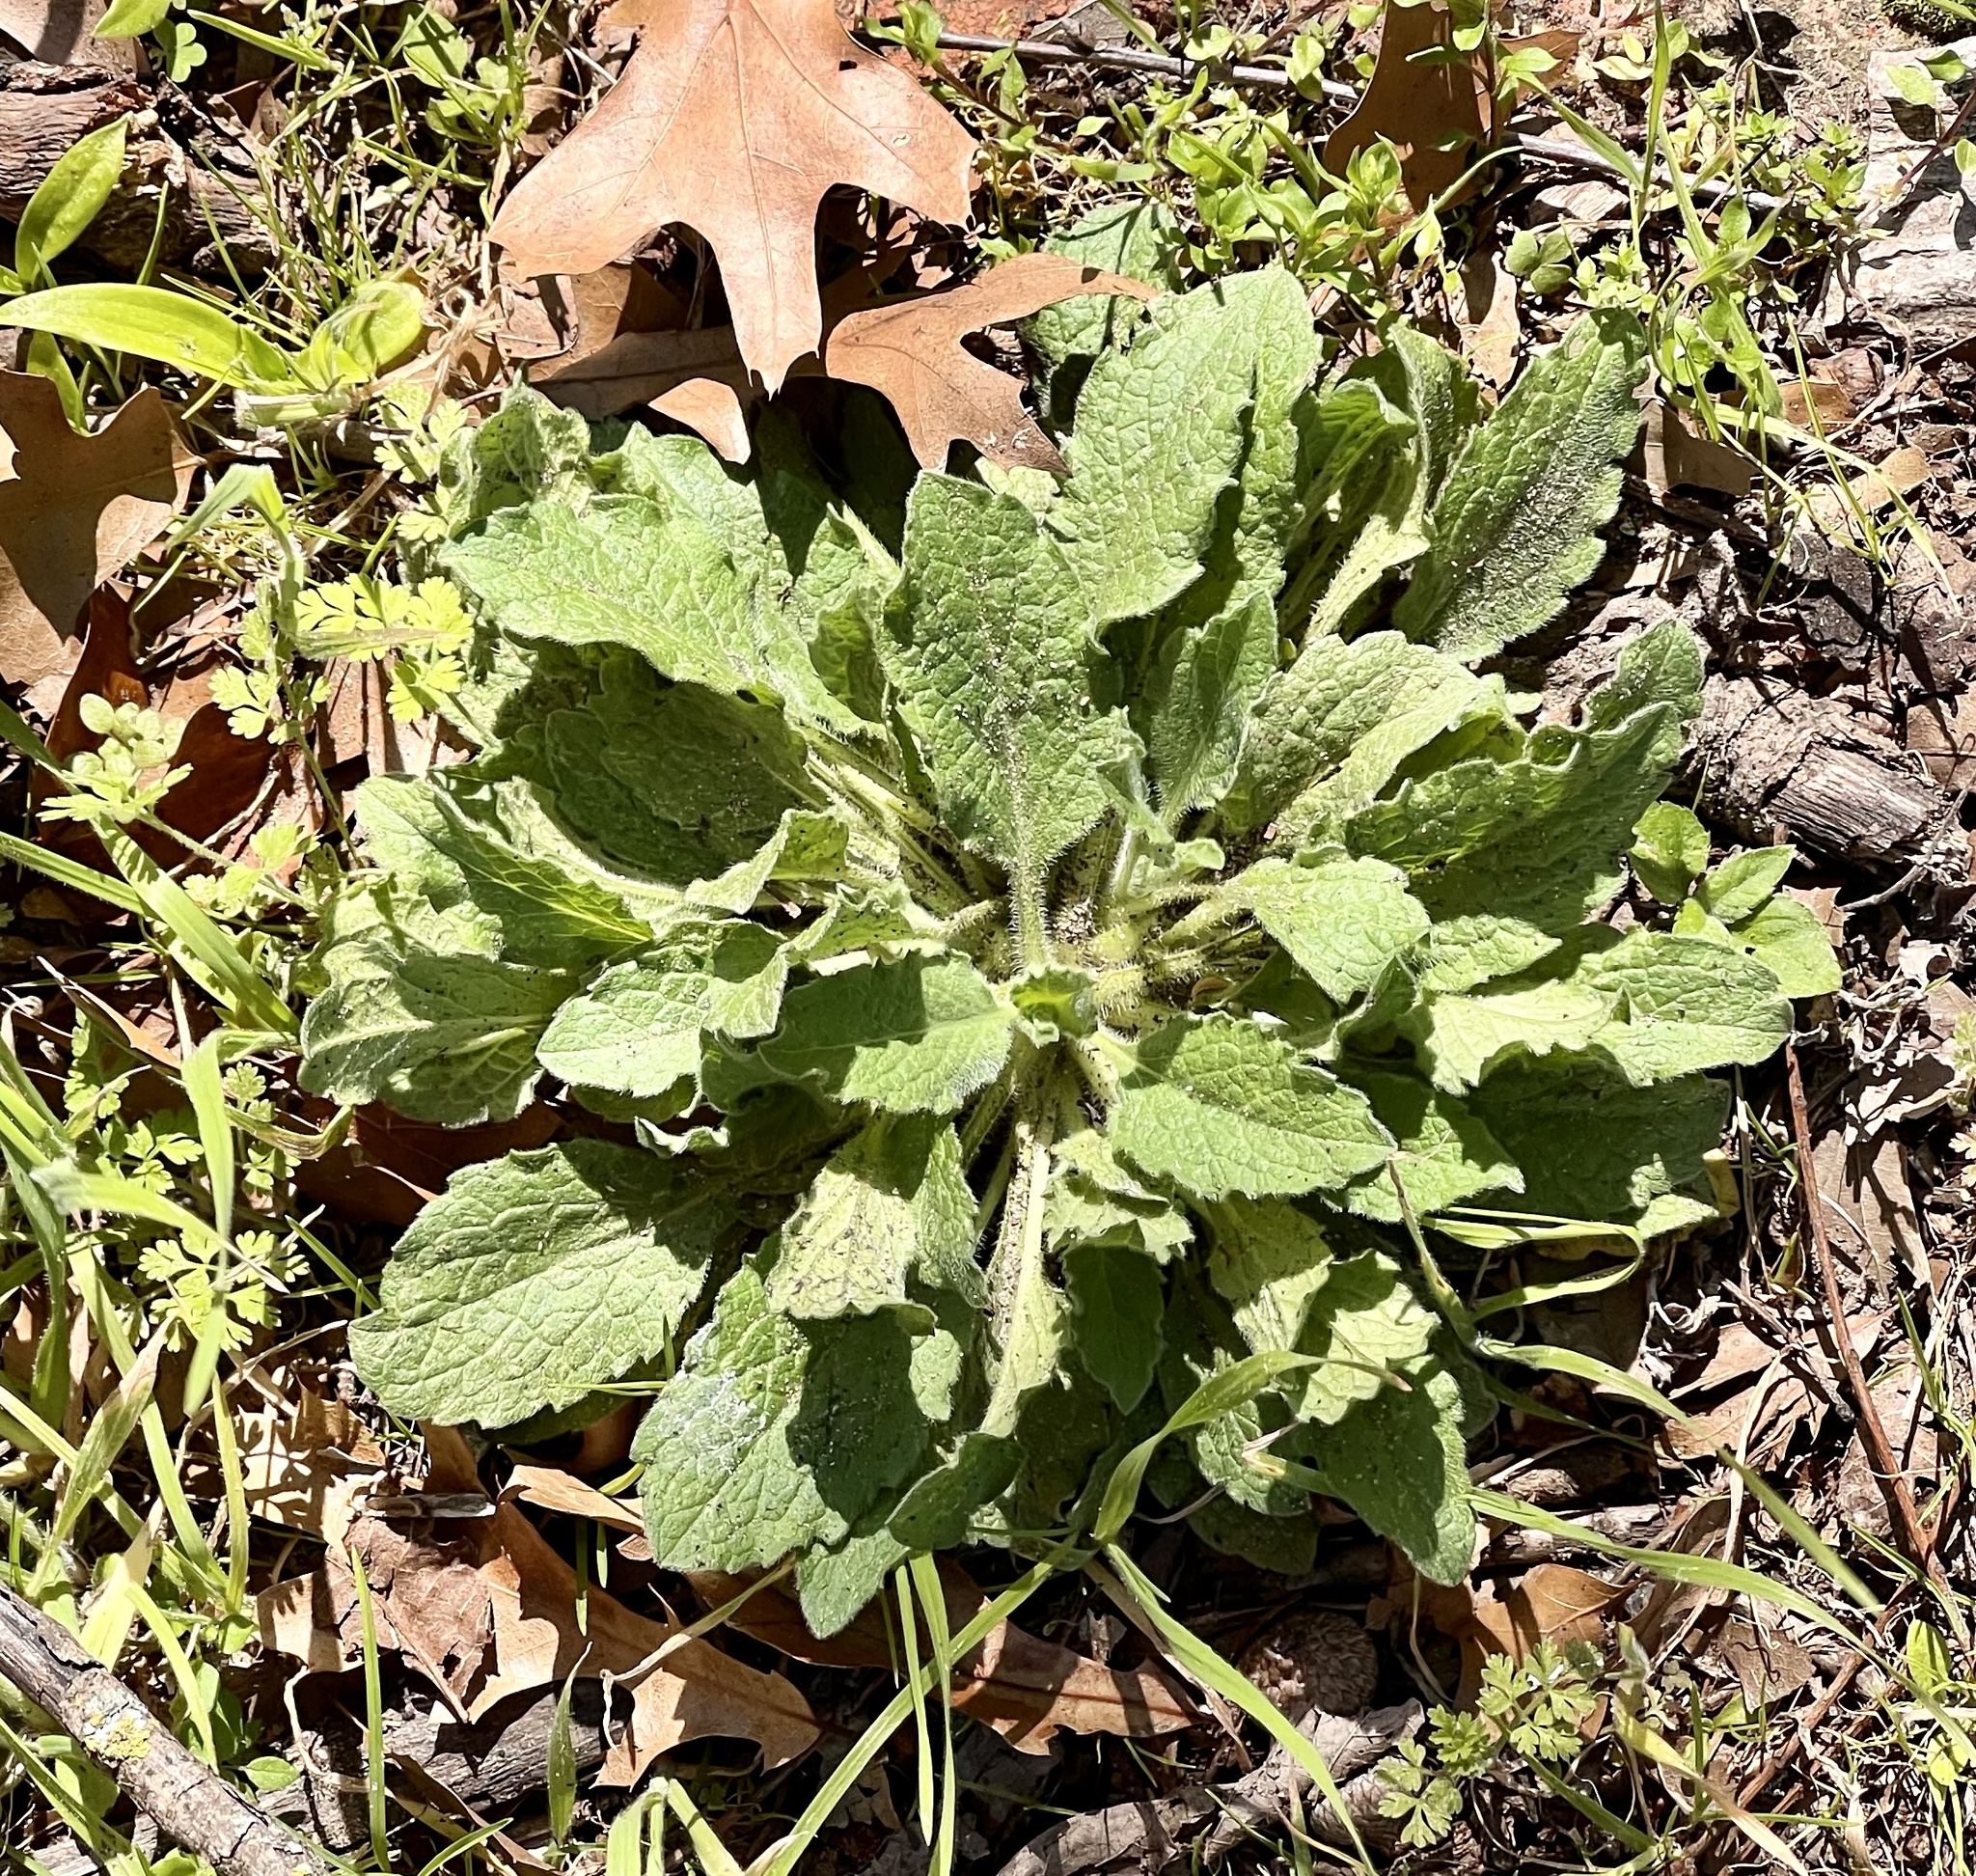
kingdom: Plantae
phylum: Tracheophyta
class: Magnoliopsida
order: Asterales
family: Asteraceae
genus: Heterotheca
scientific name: Heterotheca subaxillaris
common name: Camphorweed
